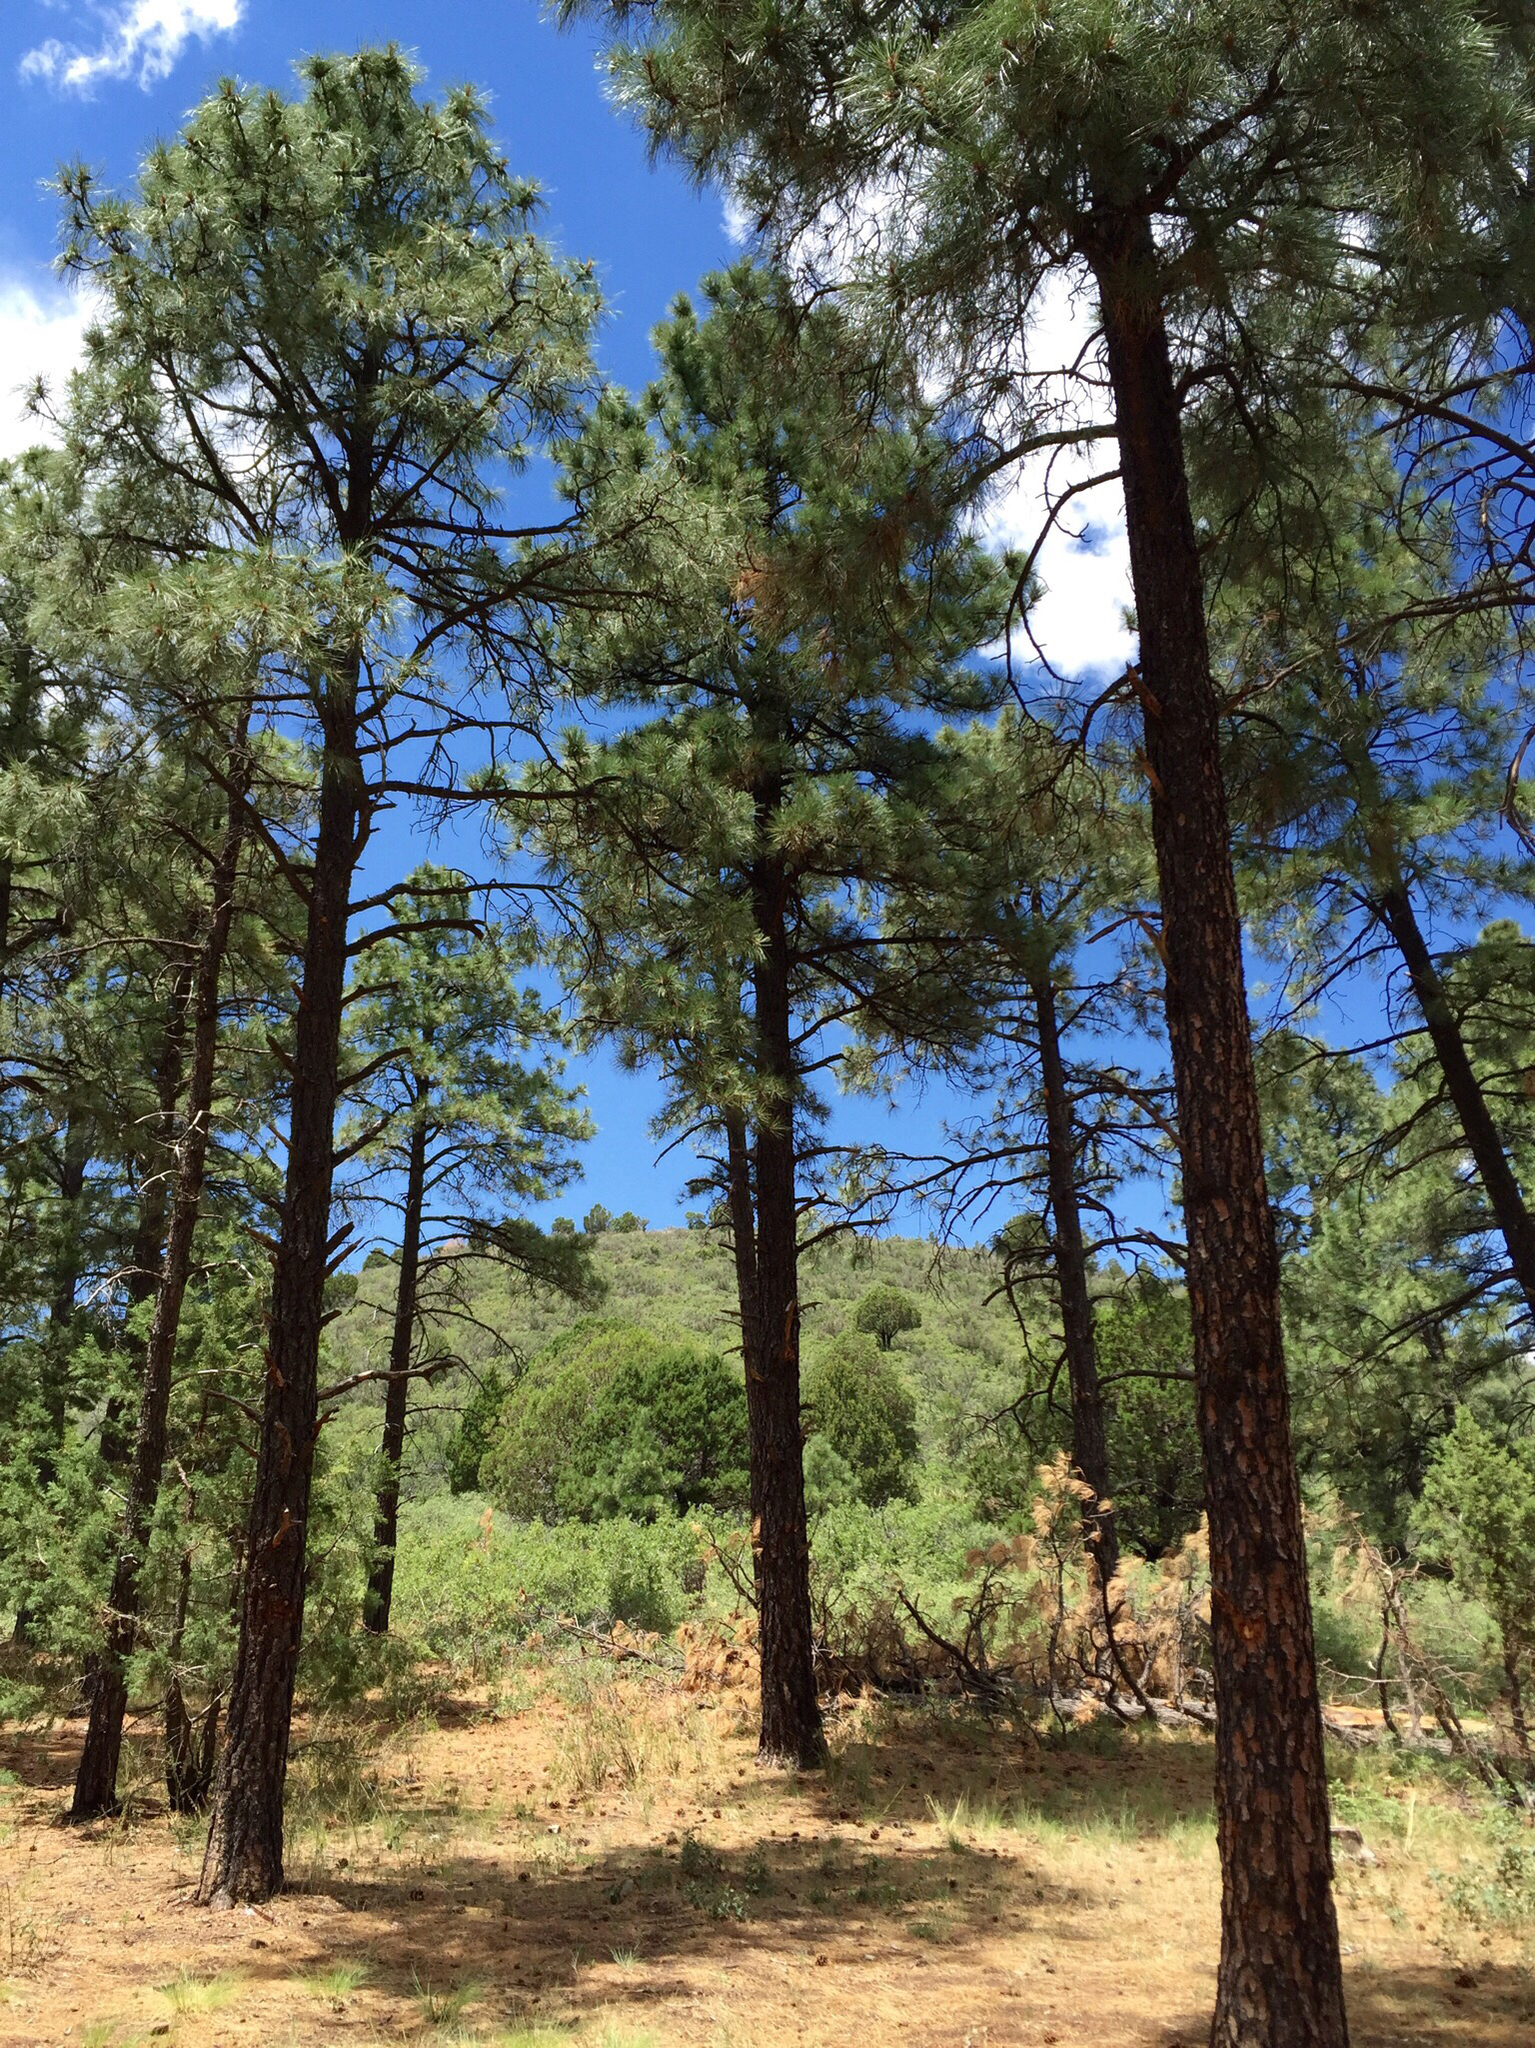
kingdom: Plantae
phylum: Tracheophyta
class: Pinopsida
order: Pinales
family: Pinaceae
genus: Pinus
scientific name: Pinus ponderosa
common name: Western yellow-pine
